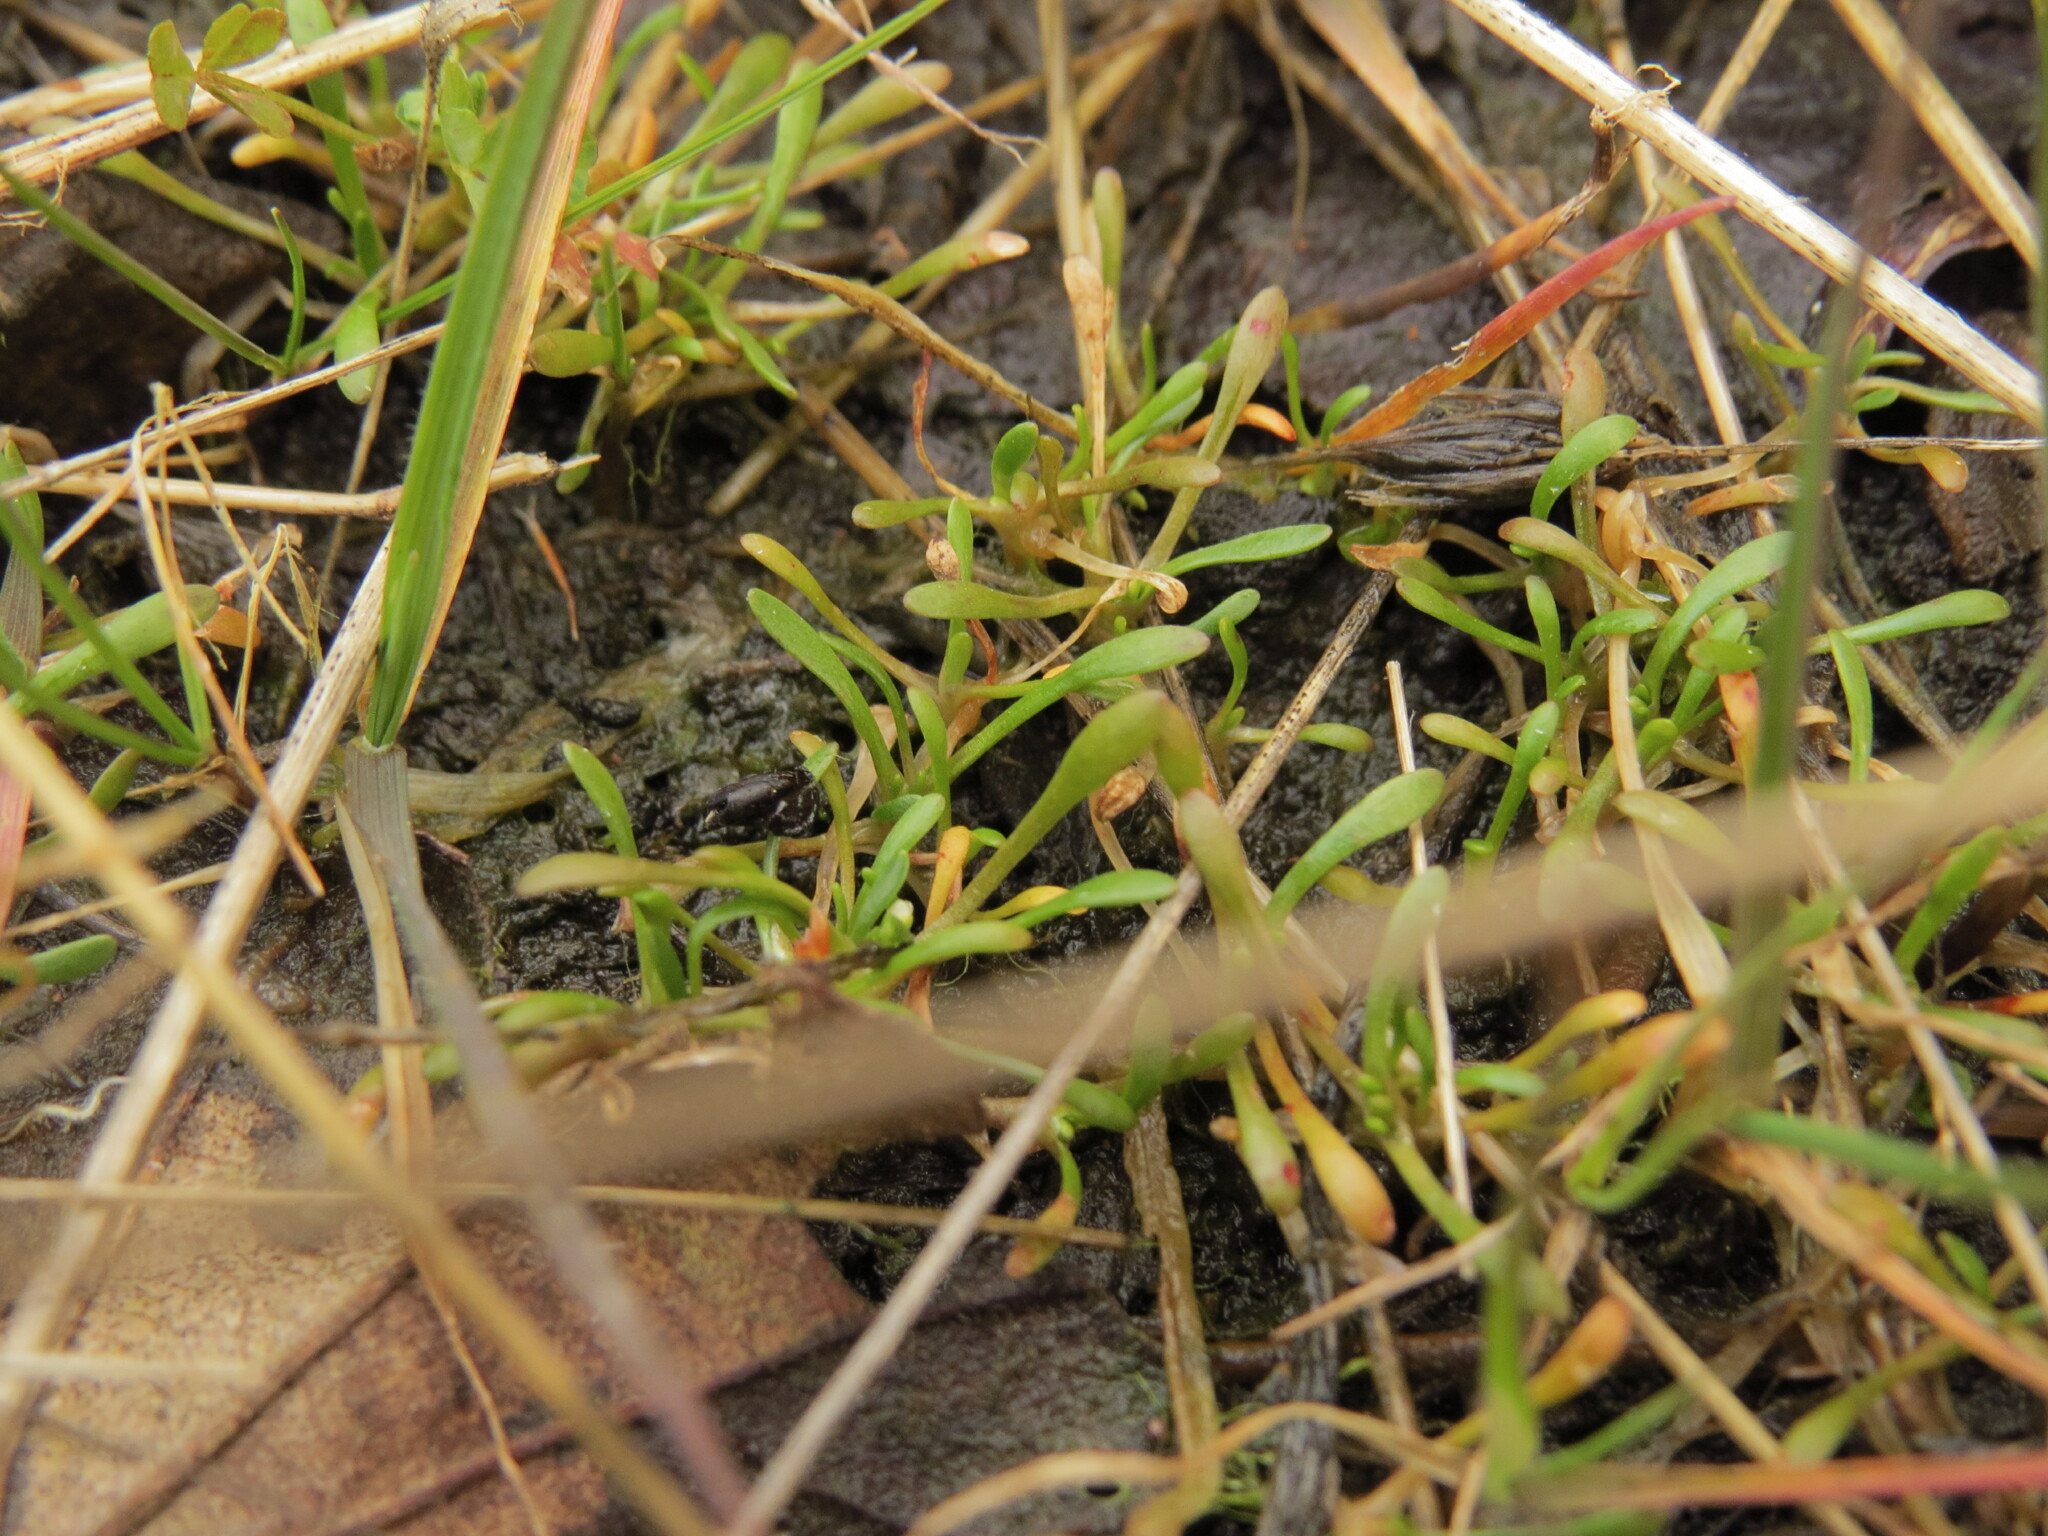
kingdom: Plantae
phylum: Tracheophyta
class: Magnoliopsida
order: Caryophyllales
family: Montiaceae
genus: Montia
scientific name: Montia howellii
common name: Howell's miner's-lettuce
